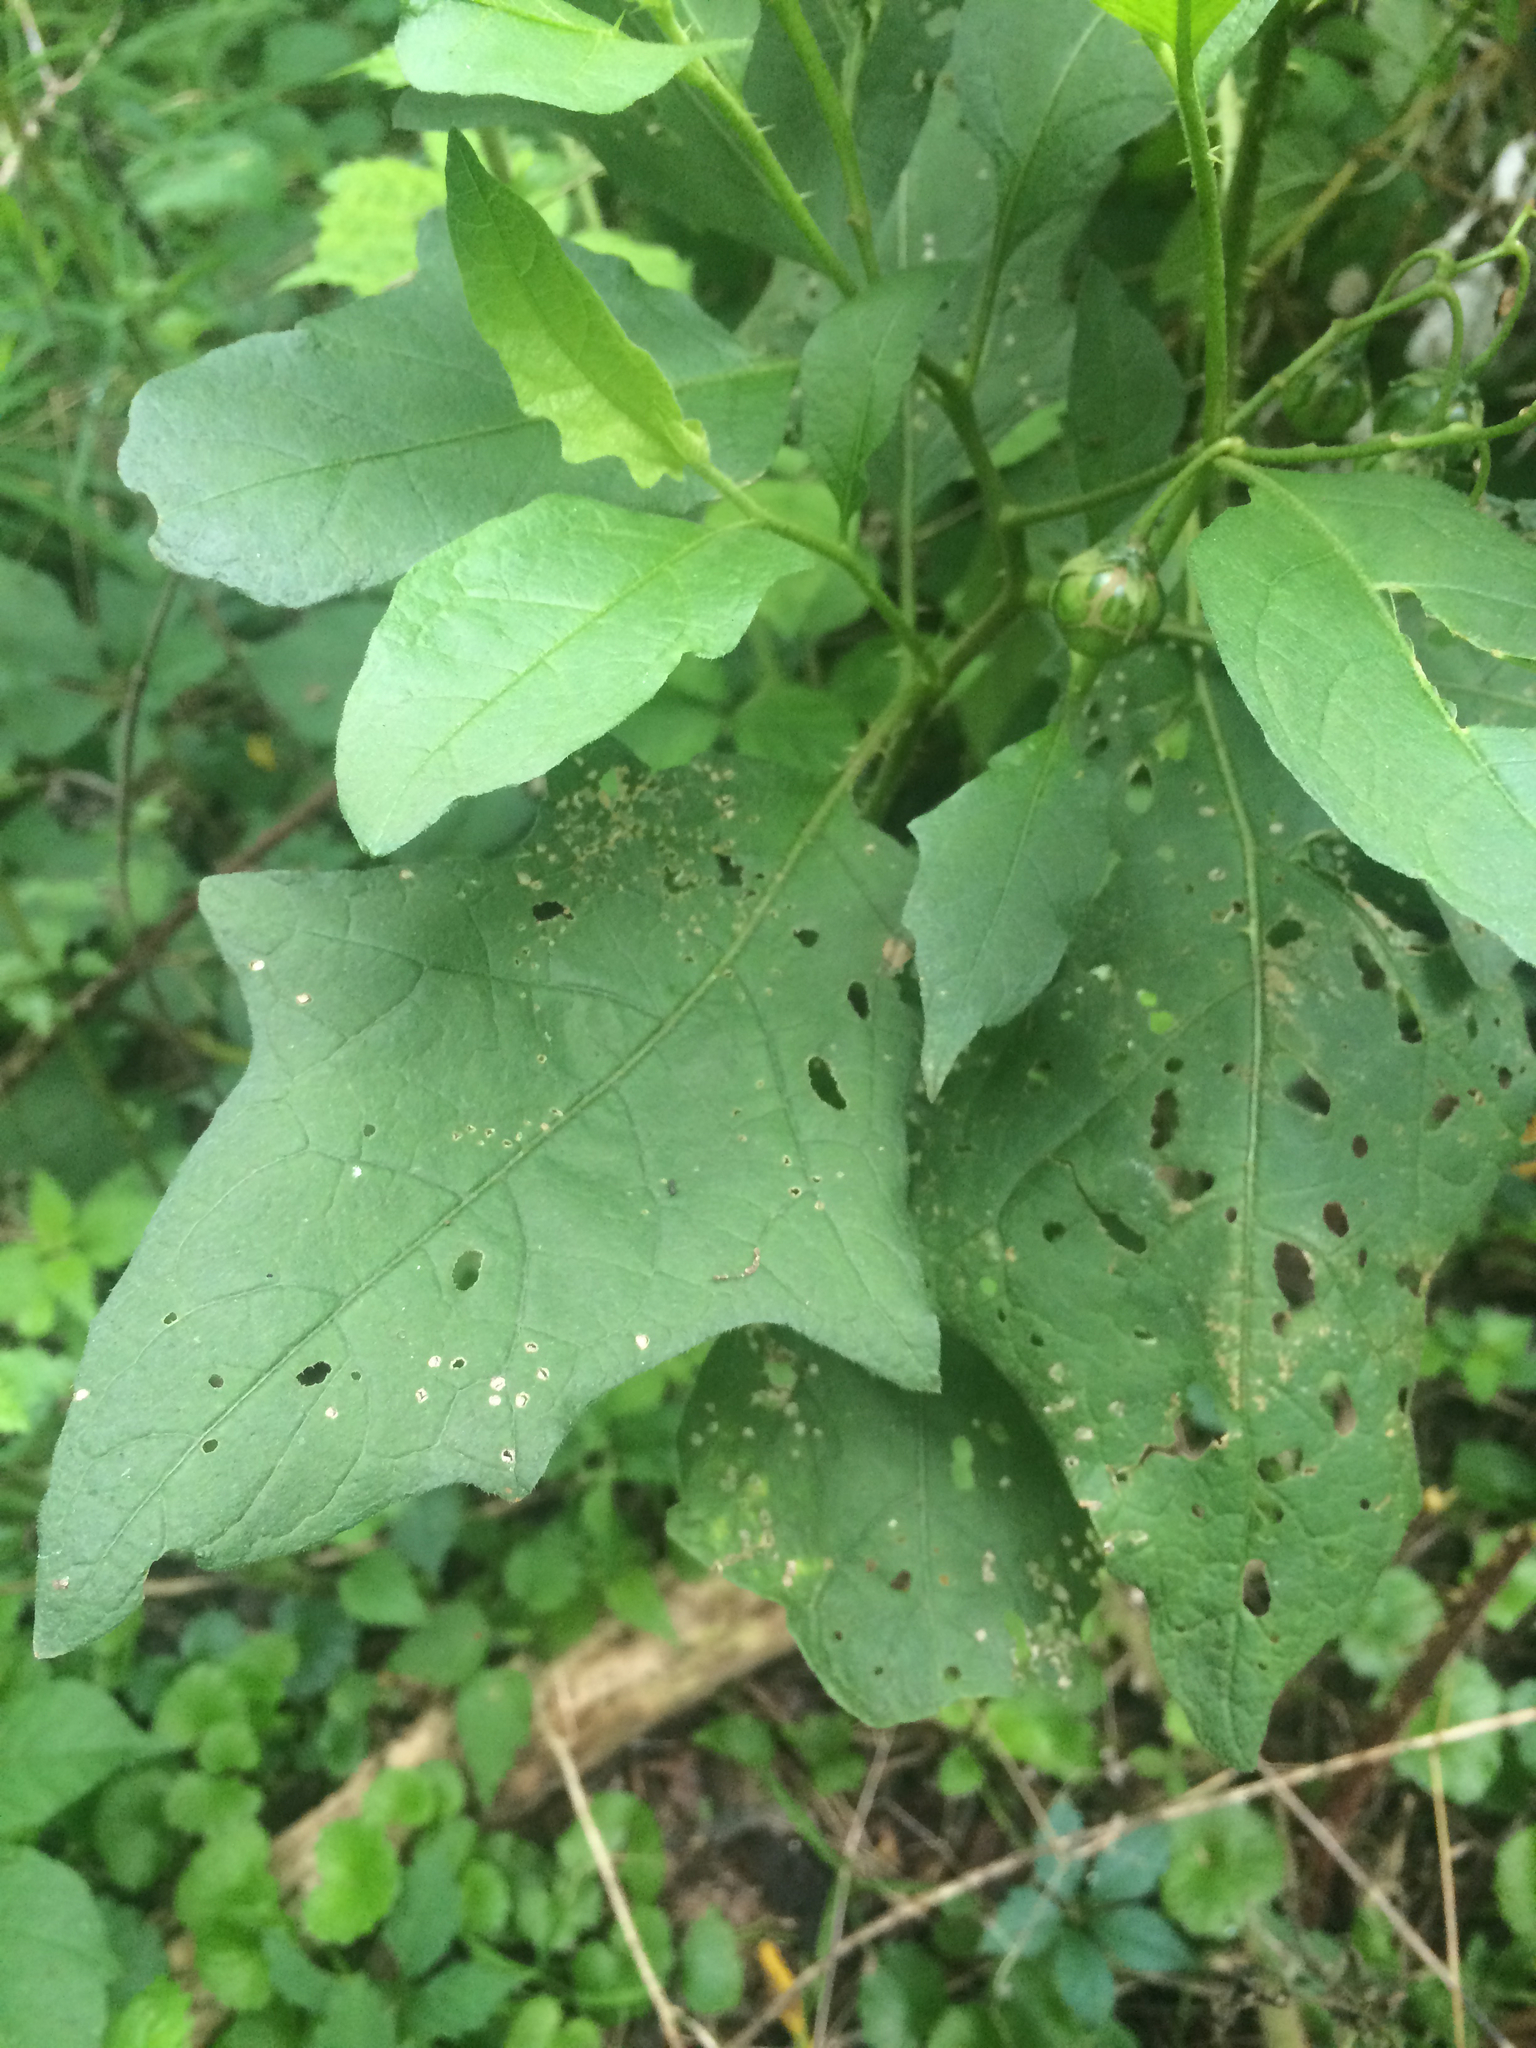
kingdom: Plantae
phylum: Tracheophyta
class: Magnoliopsida
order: Solanales
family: Solanaceae
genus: Solanum
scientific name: Solanum carolinense
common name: Horse-nettle
